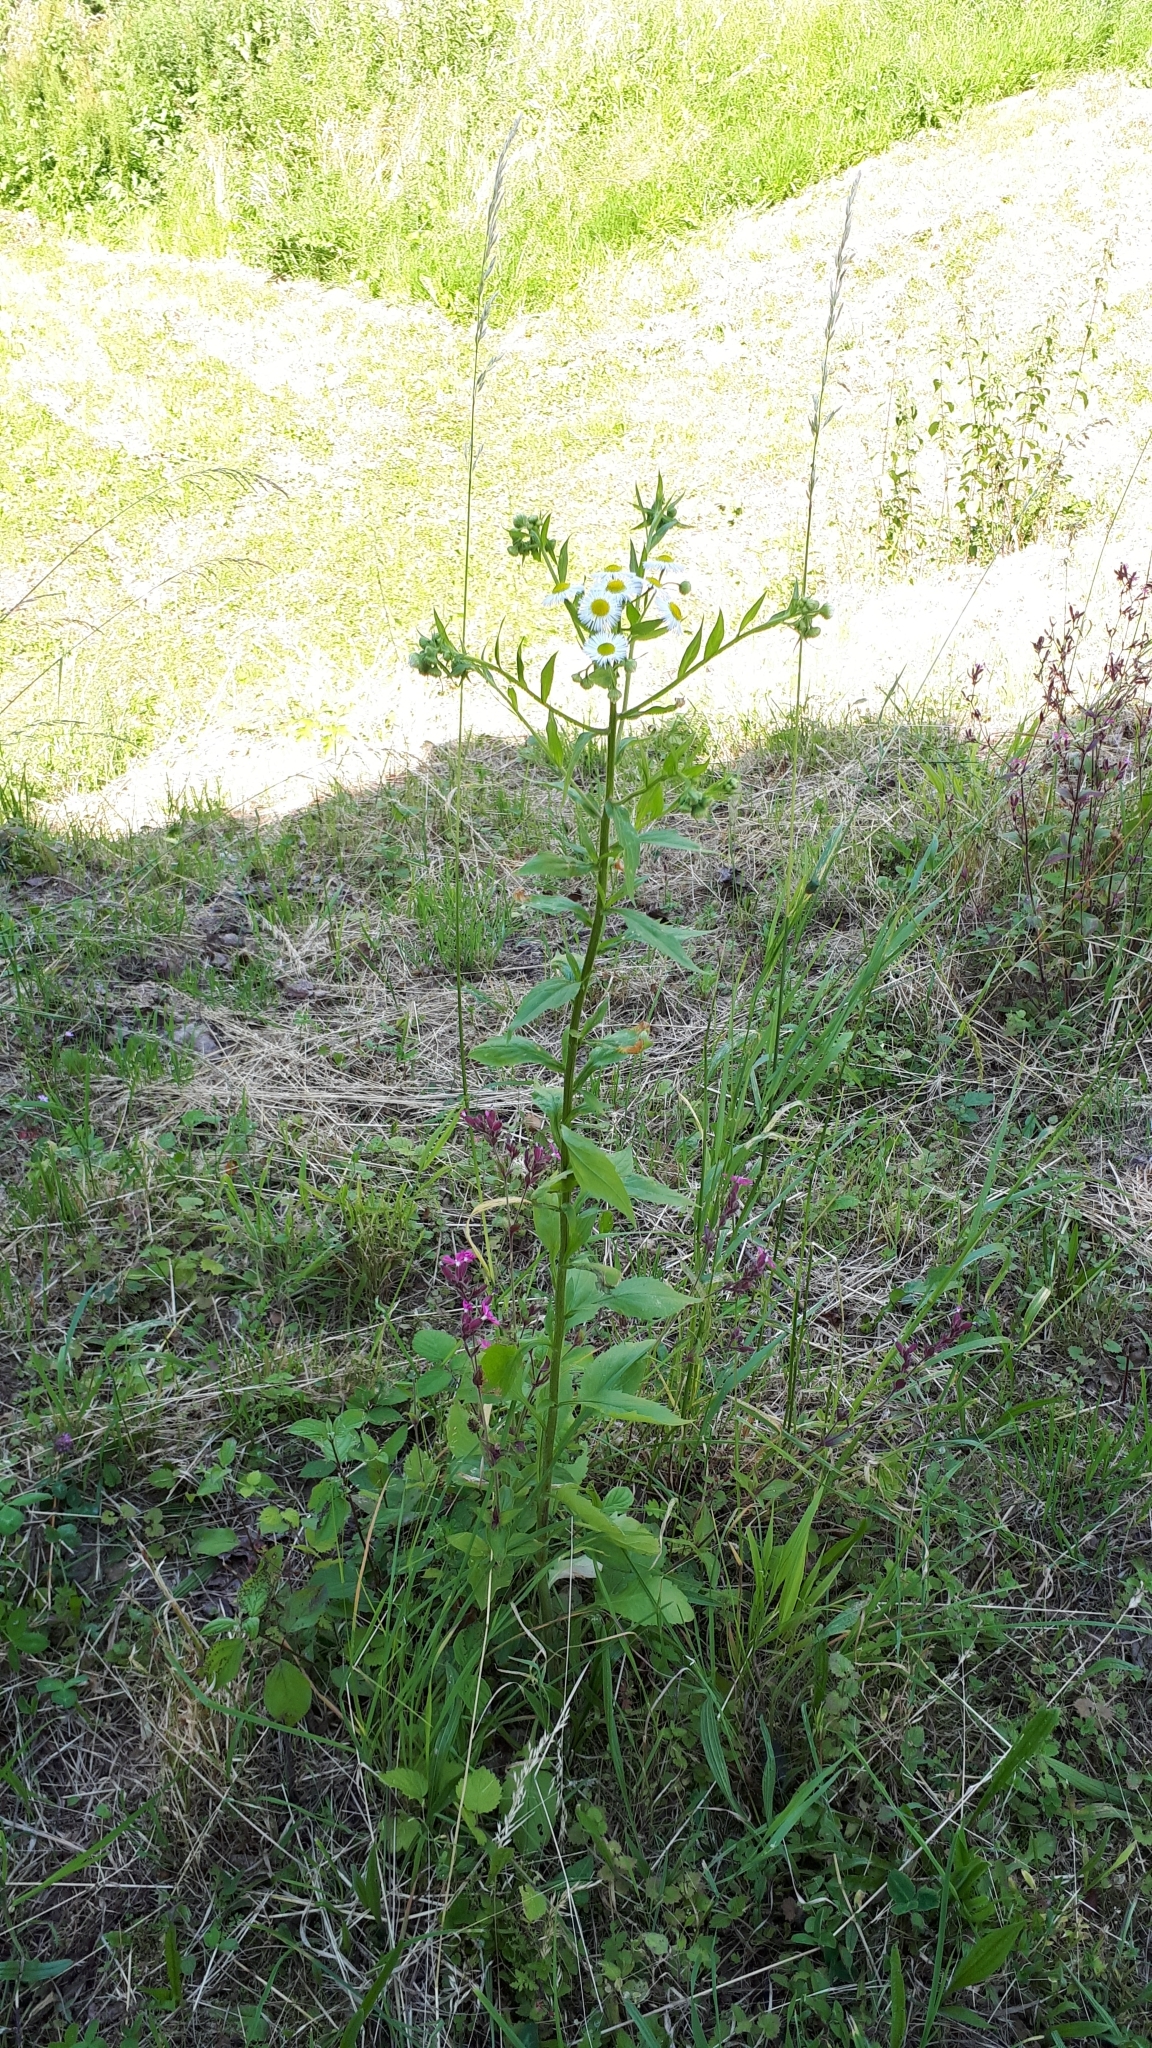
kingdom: Plantae
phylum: Tracheophyta
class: Magnoliopsida
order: Asterales
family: Asteraceae
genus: Erigeron
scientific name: Erigeron annuus
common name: Tall fleabane
